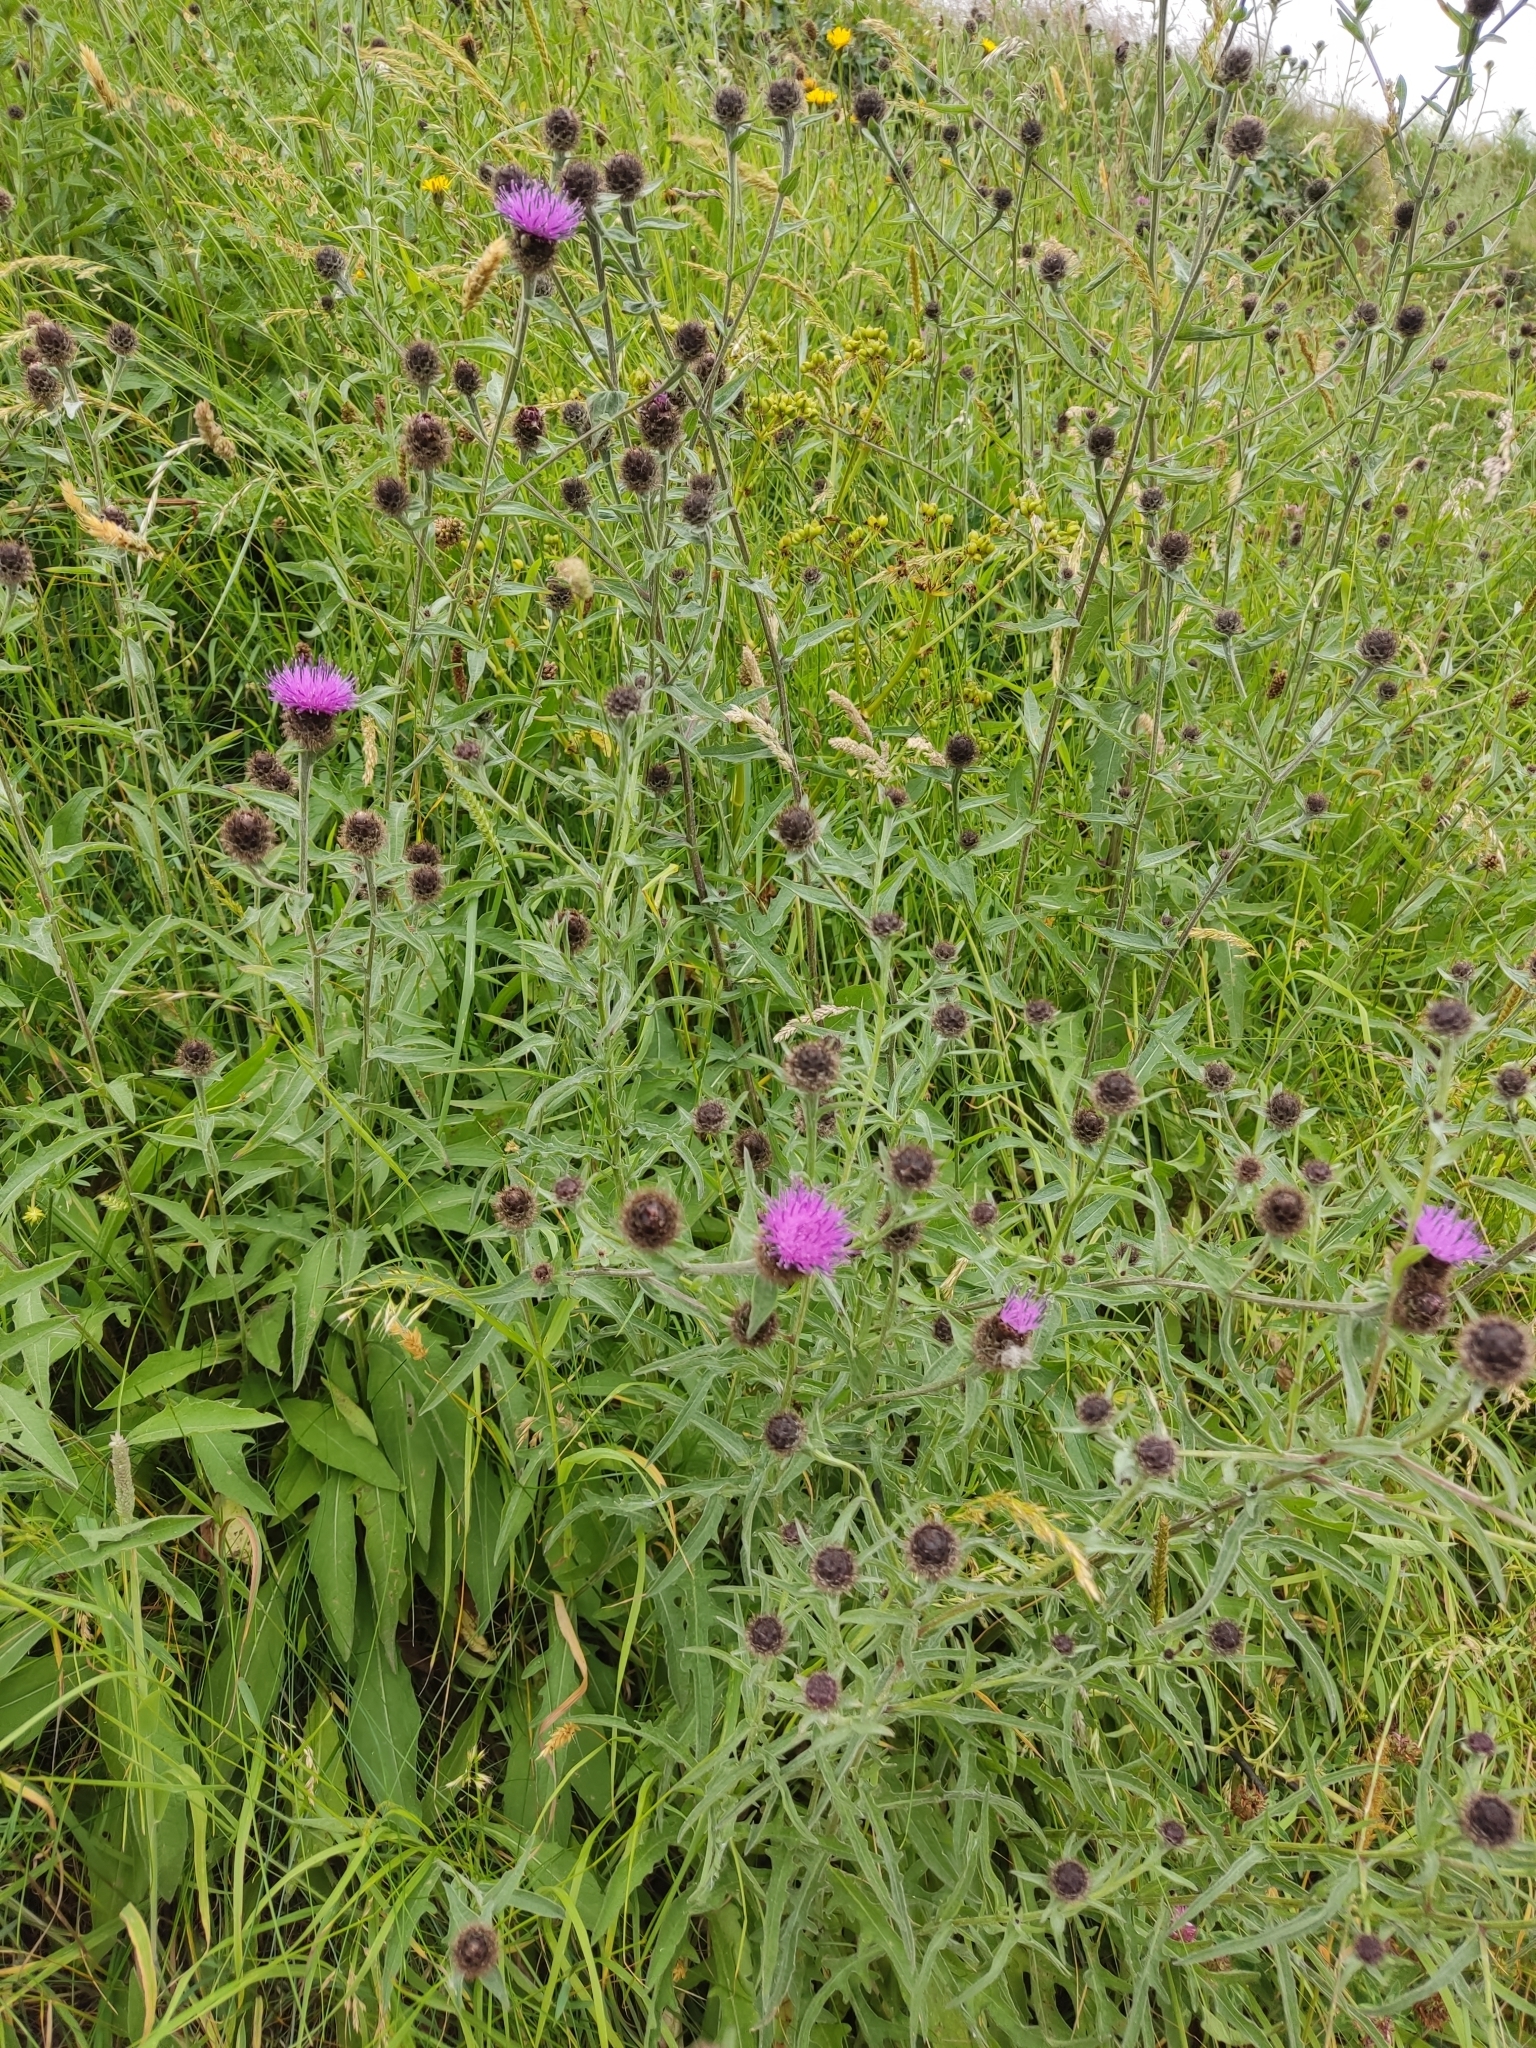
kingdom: Plantae
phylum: Tracheophyta
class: Magnoliopsida
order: Asterales
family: Asteraceae
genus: Centaurea
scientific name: Centaurea nigra
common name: Lesser knapweed
